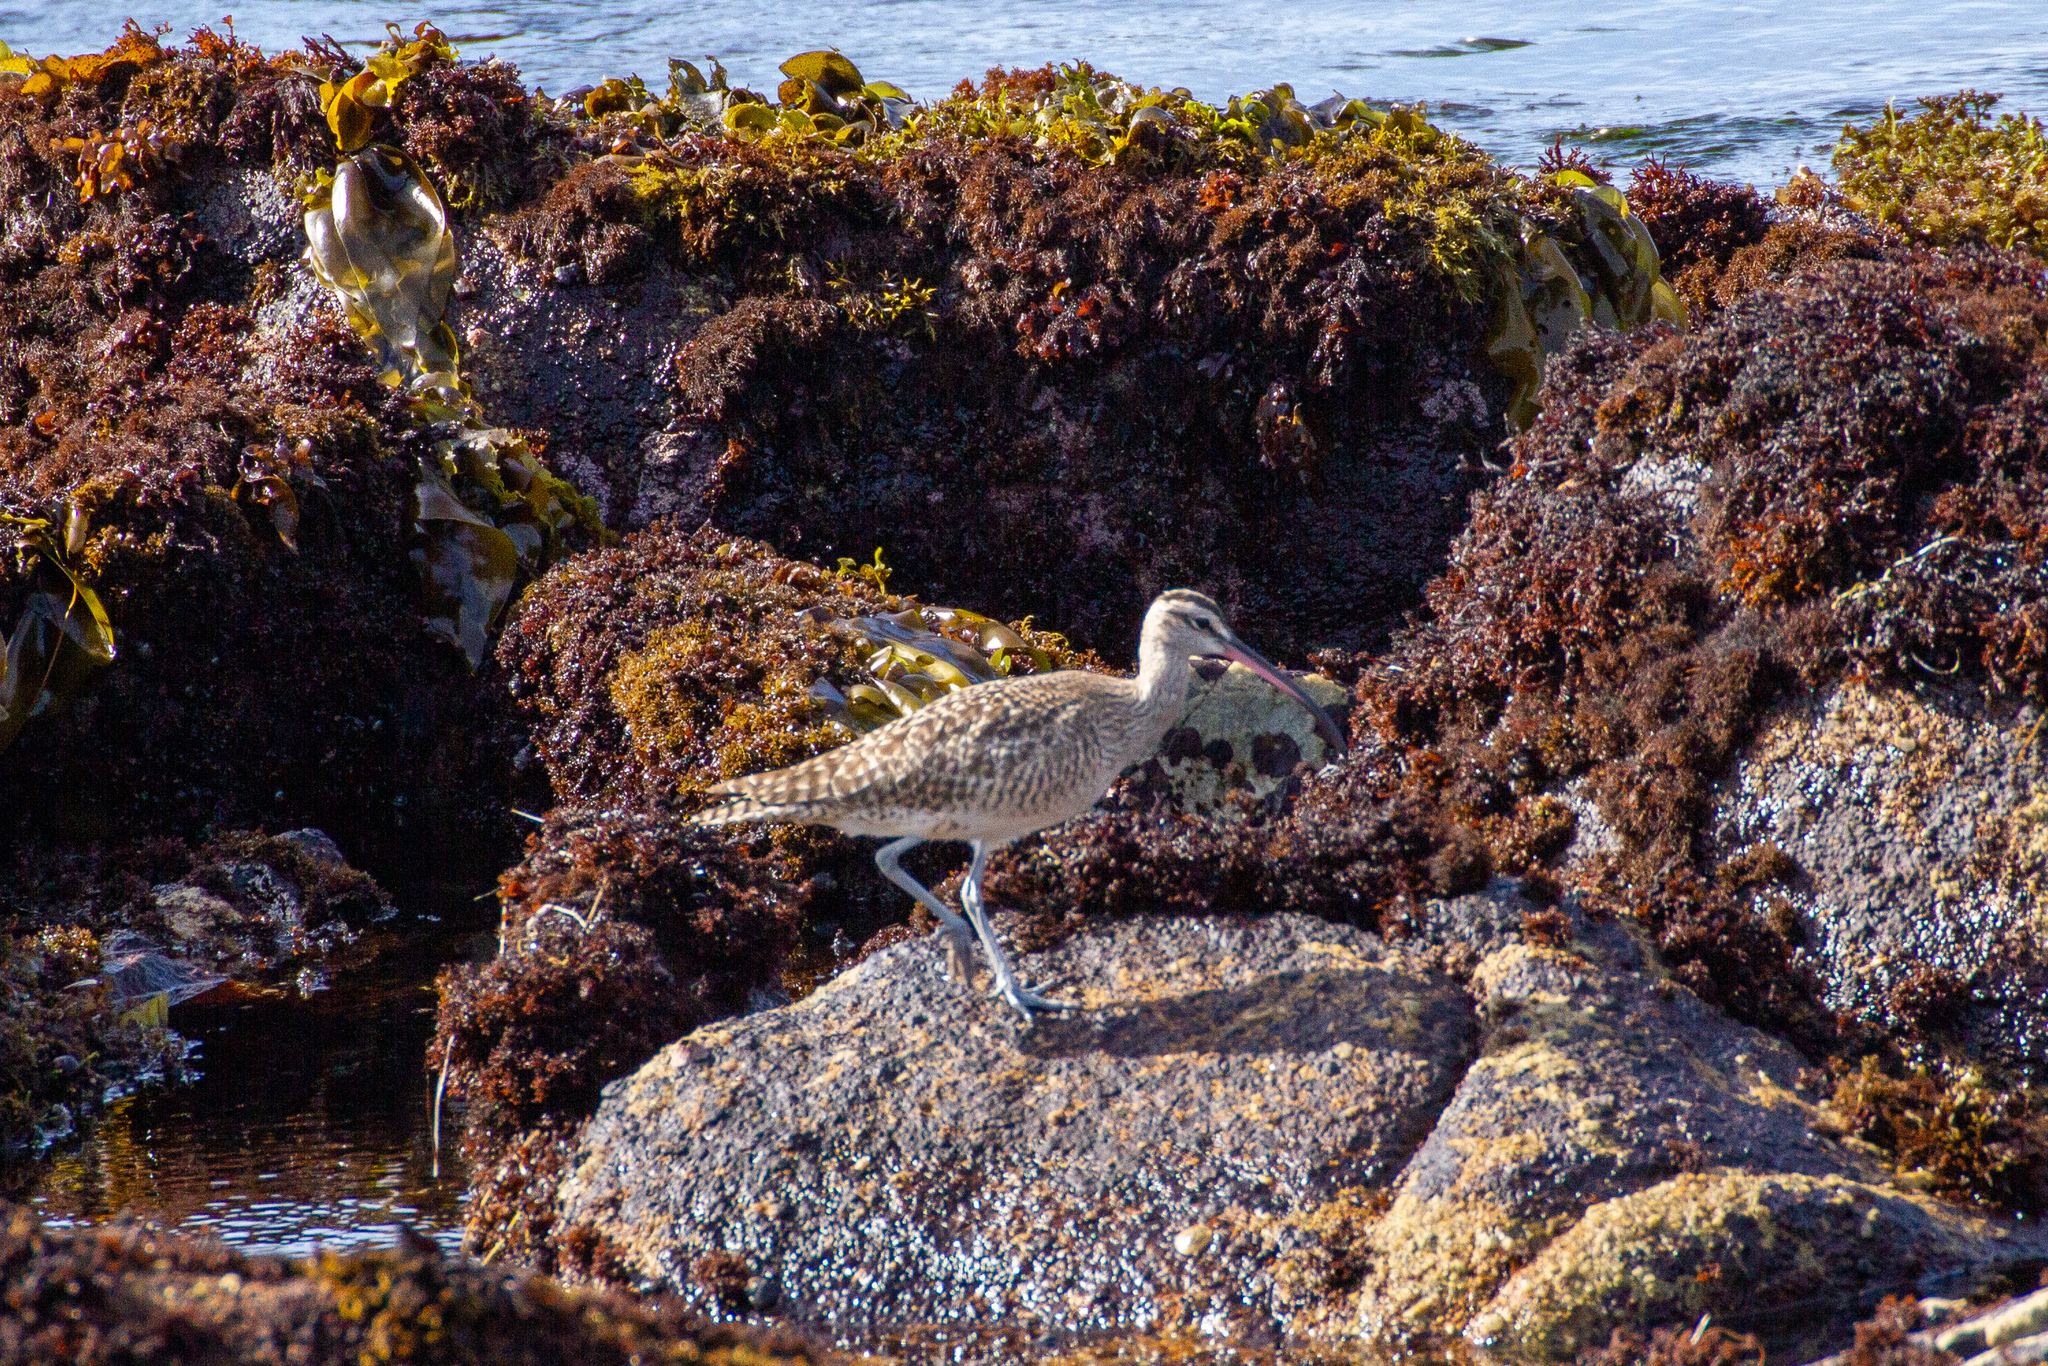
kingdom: Animalia
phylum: Chordata
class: Aves
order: Charadriiformes
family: Scolopacidae
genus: Numenius
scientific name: Numenius phaeopus
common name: Whimbrel
